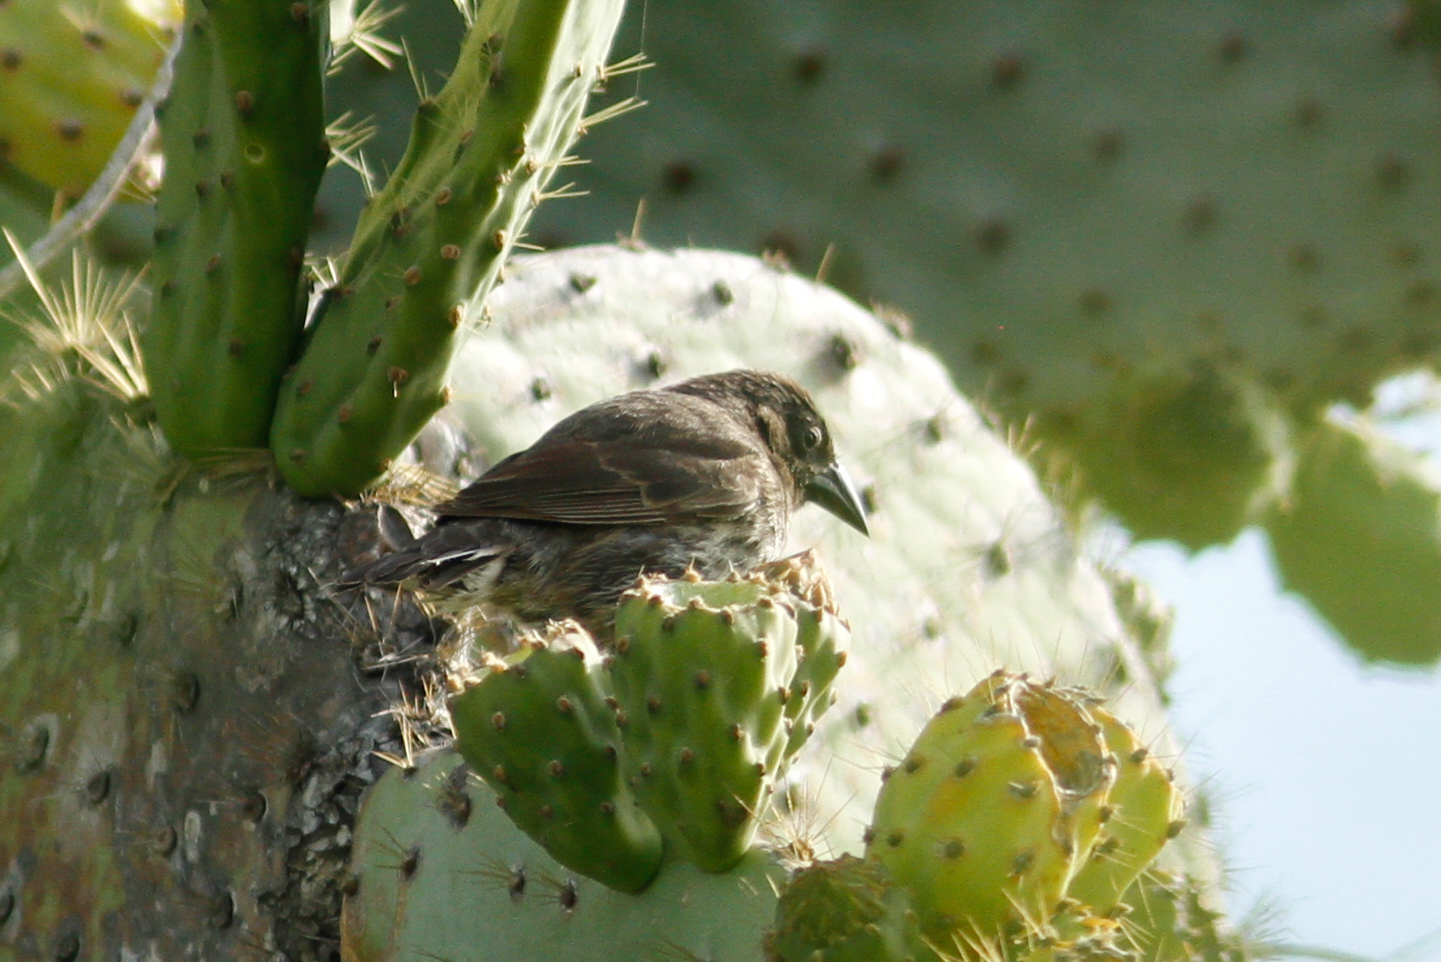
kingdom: Animalia
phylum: Chordata
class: Aves
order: Passeriformes
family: Thraupidae
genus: Geospiza
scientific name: Geospiza scandens
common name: Common cactus-finch
